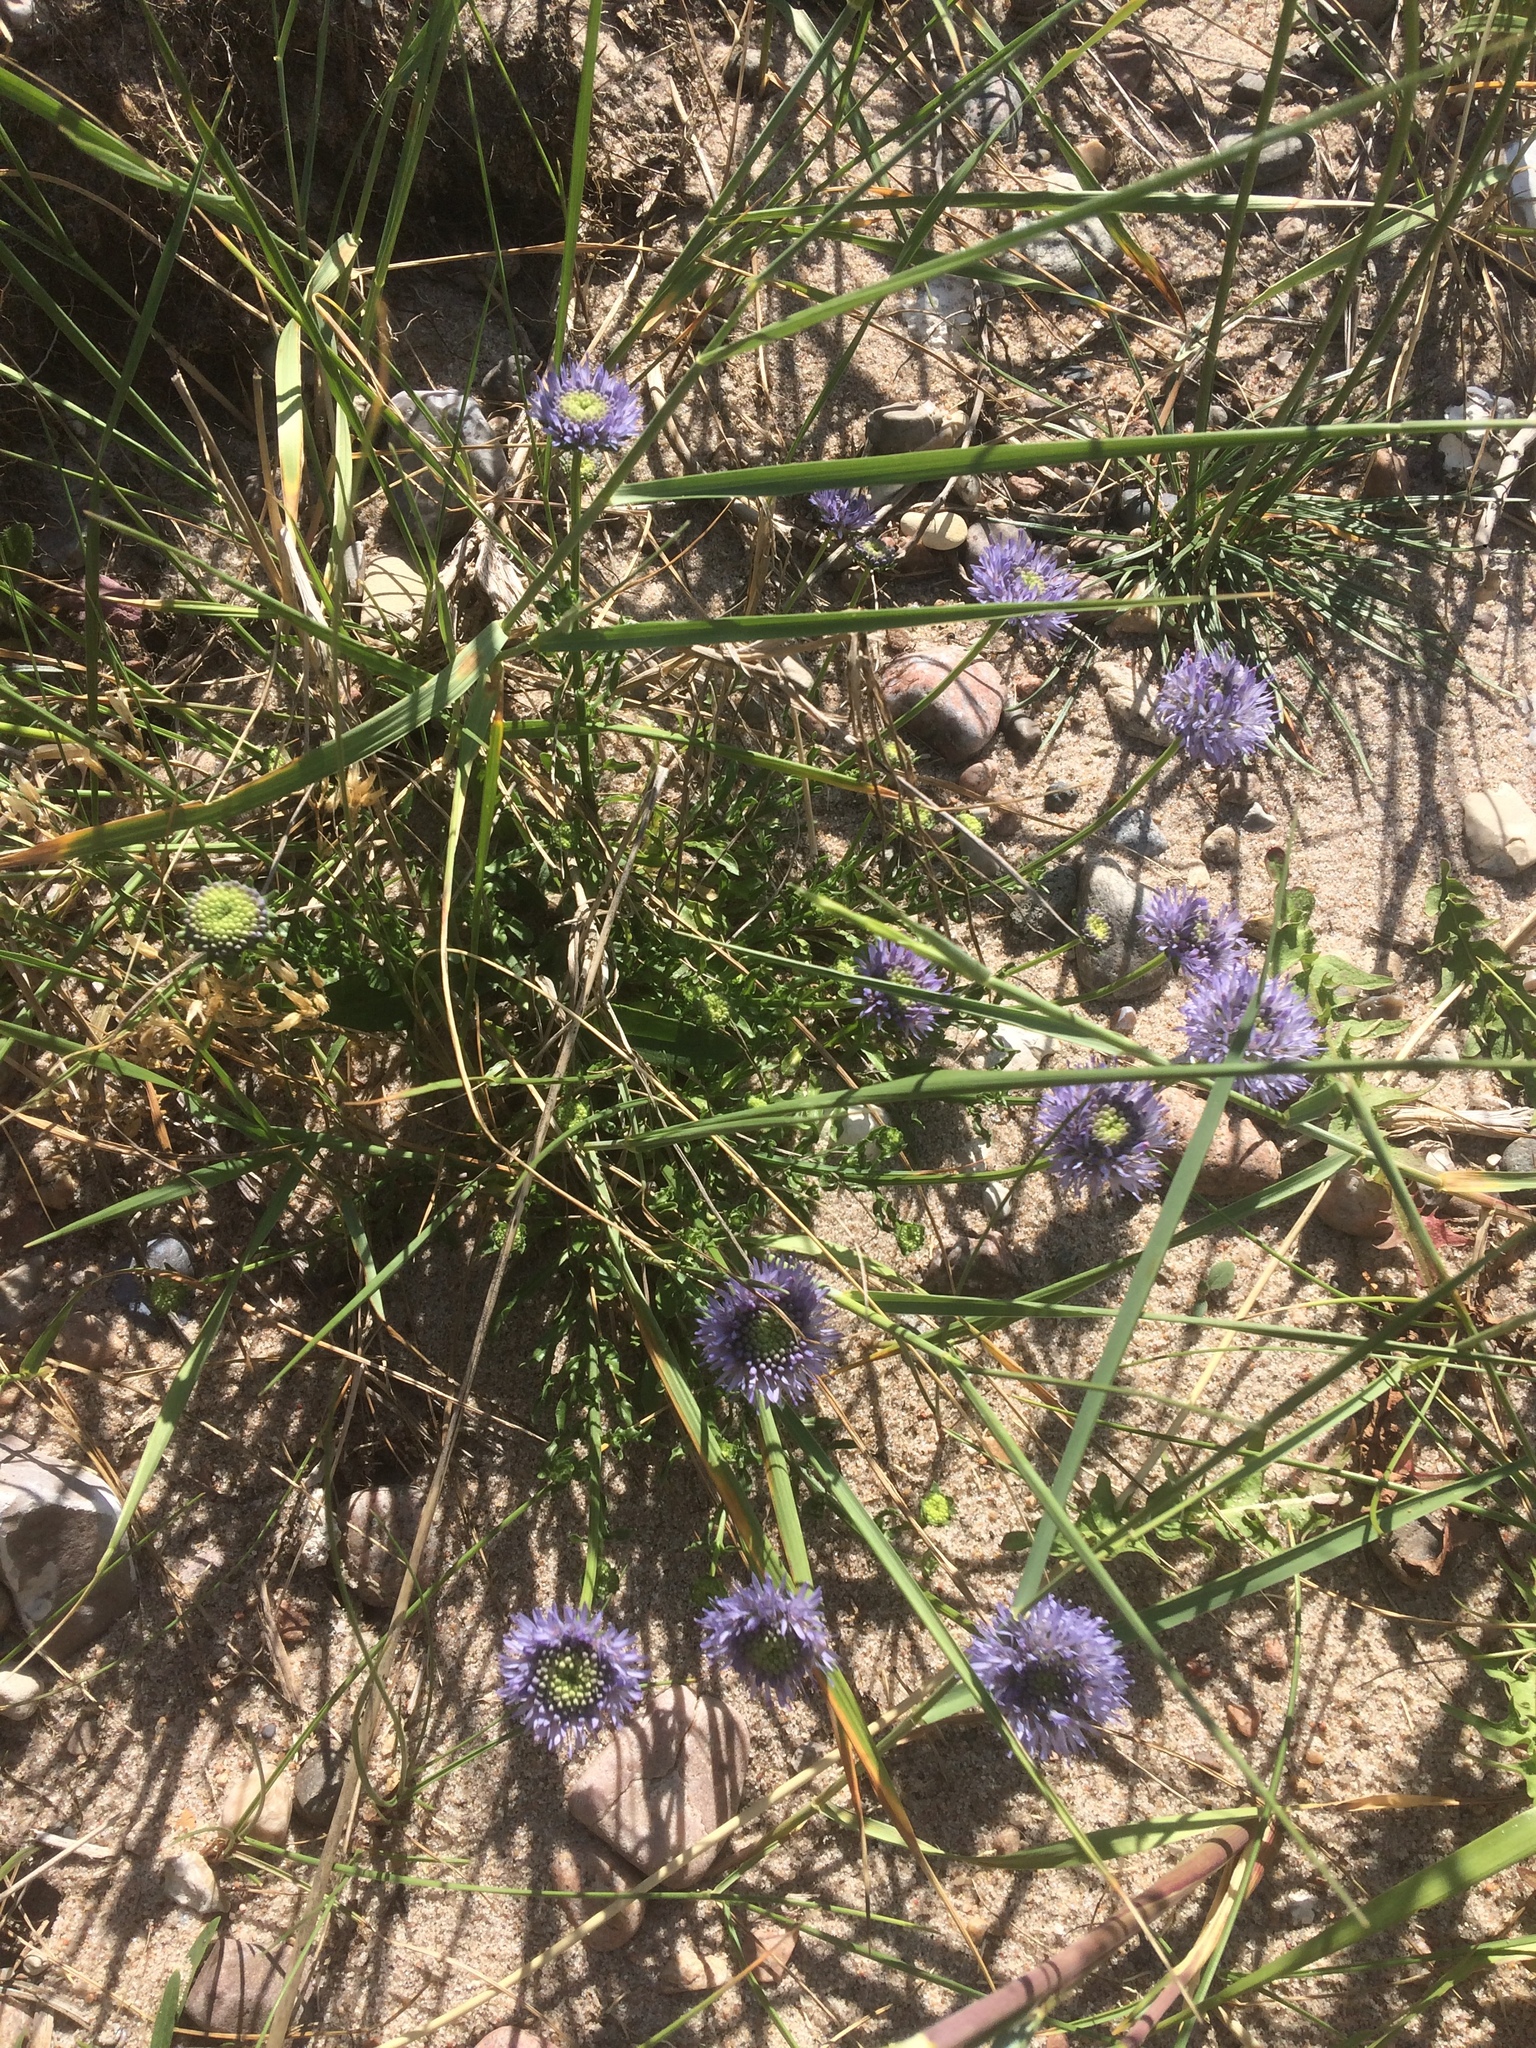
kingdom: Plantae
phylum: Tracheophyta
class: Magnoliopsida
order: Asterales
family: Campanulaceae
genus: Jasione
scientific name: Jasione montana
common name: Sheep's-bit
